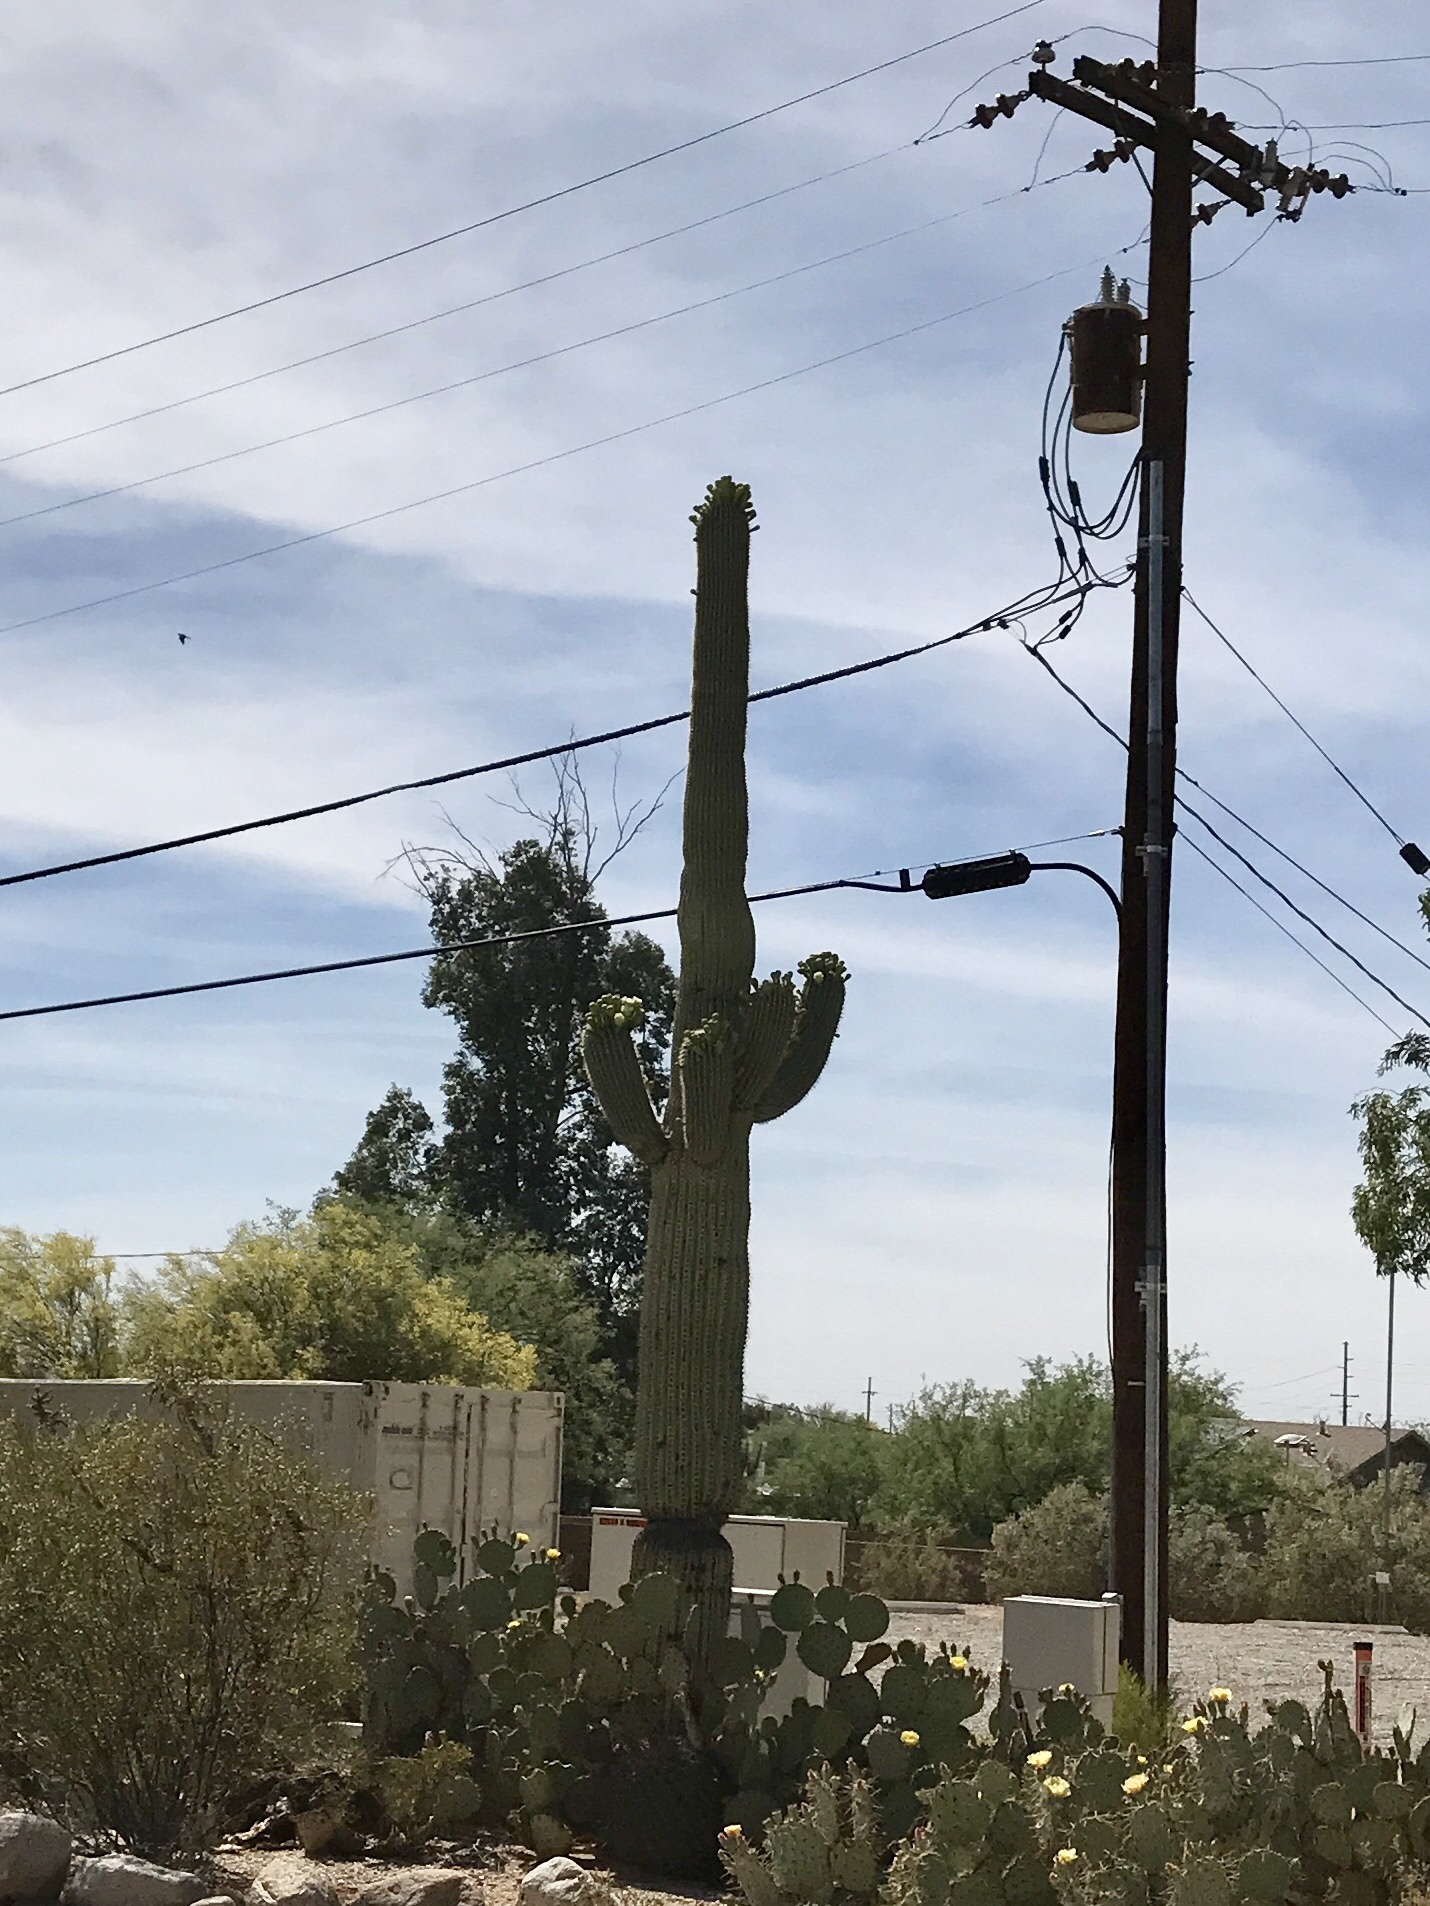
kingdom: Plantae
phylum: Tracheophyta
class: Magnoliopsida
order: Caryophyllales
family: Cactaceae
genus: Carnegiea
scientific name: Carnegiea gigantea
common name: Saguaro
